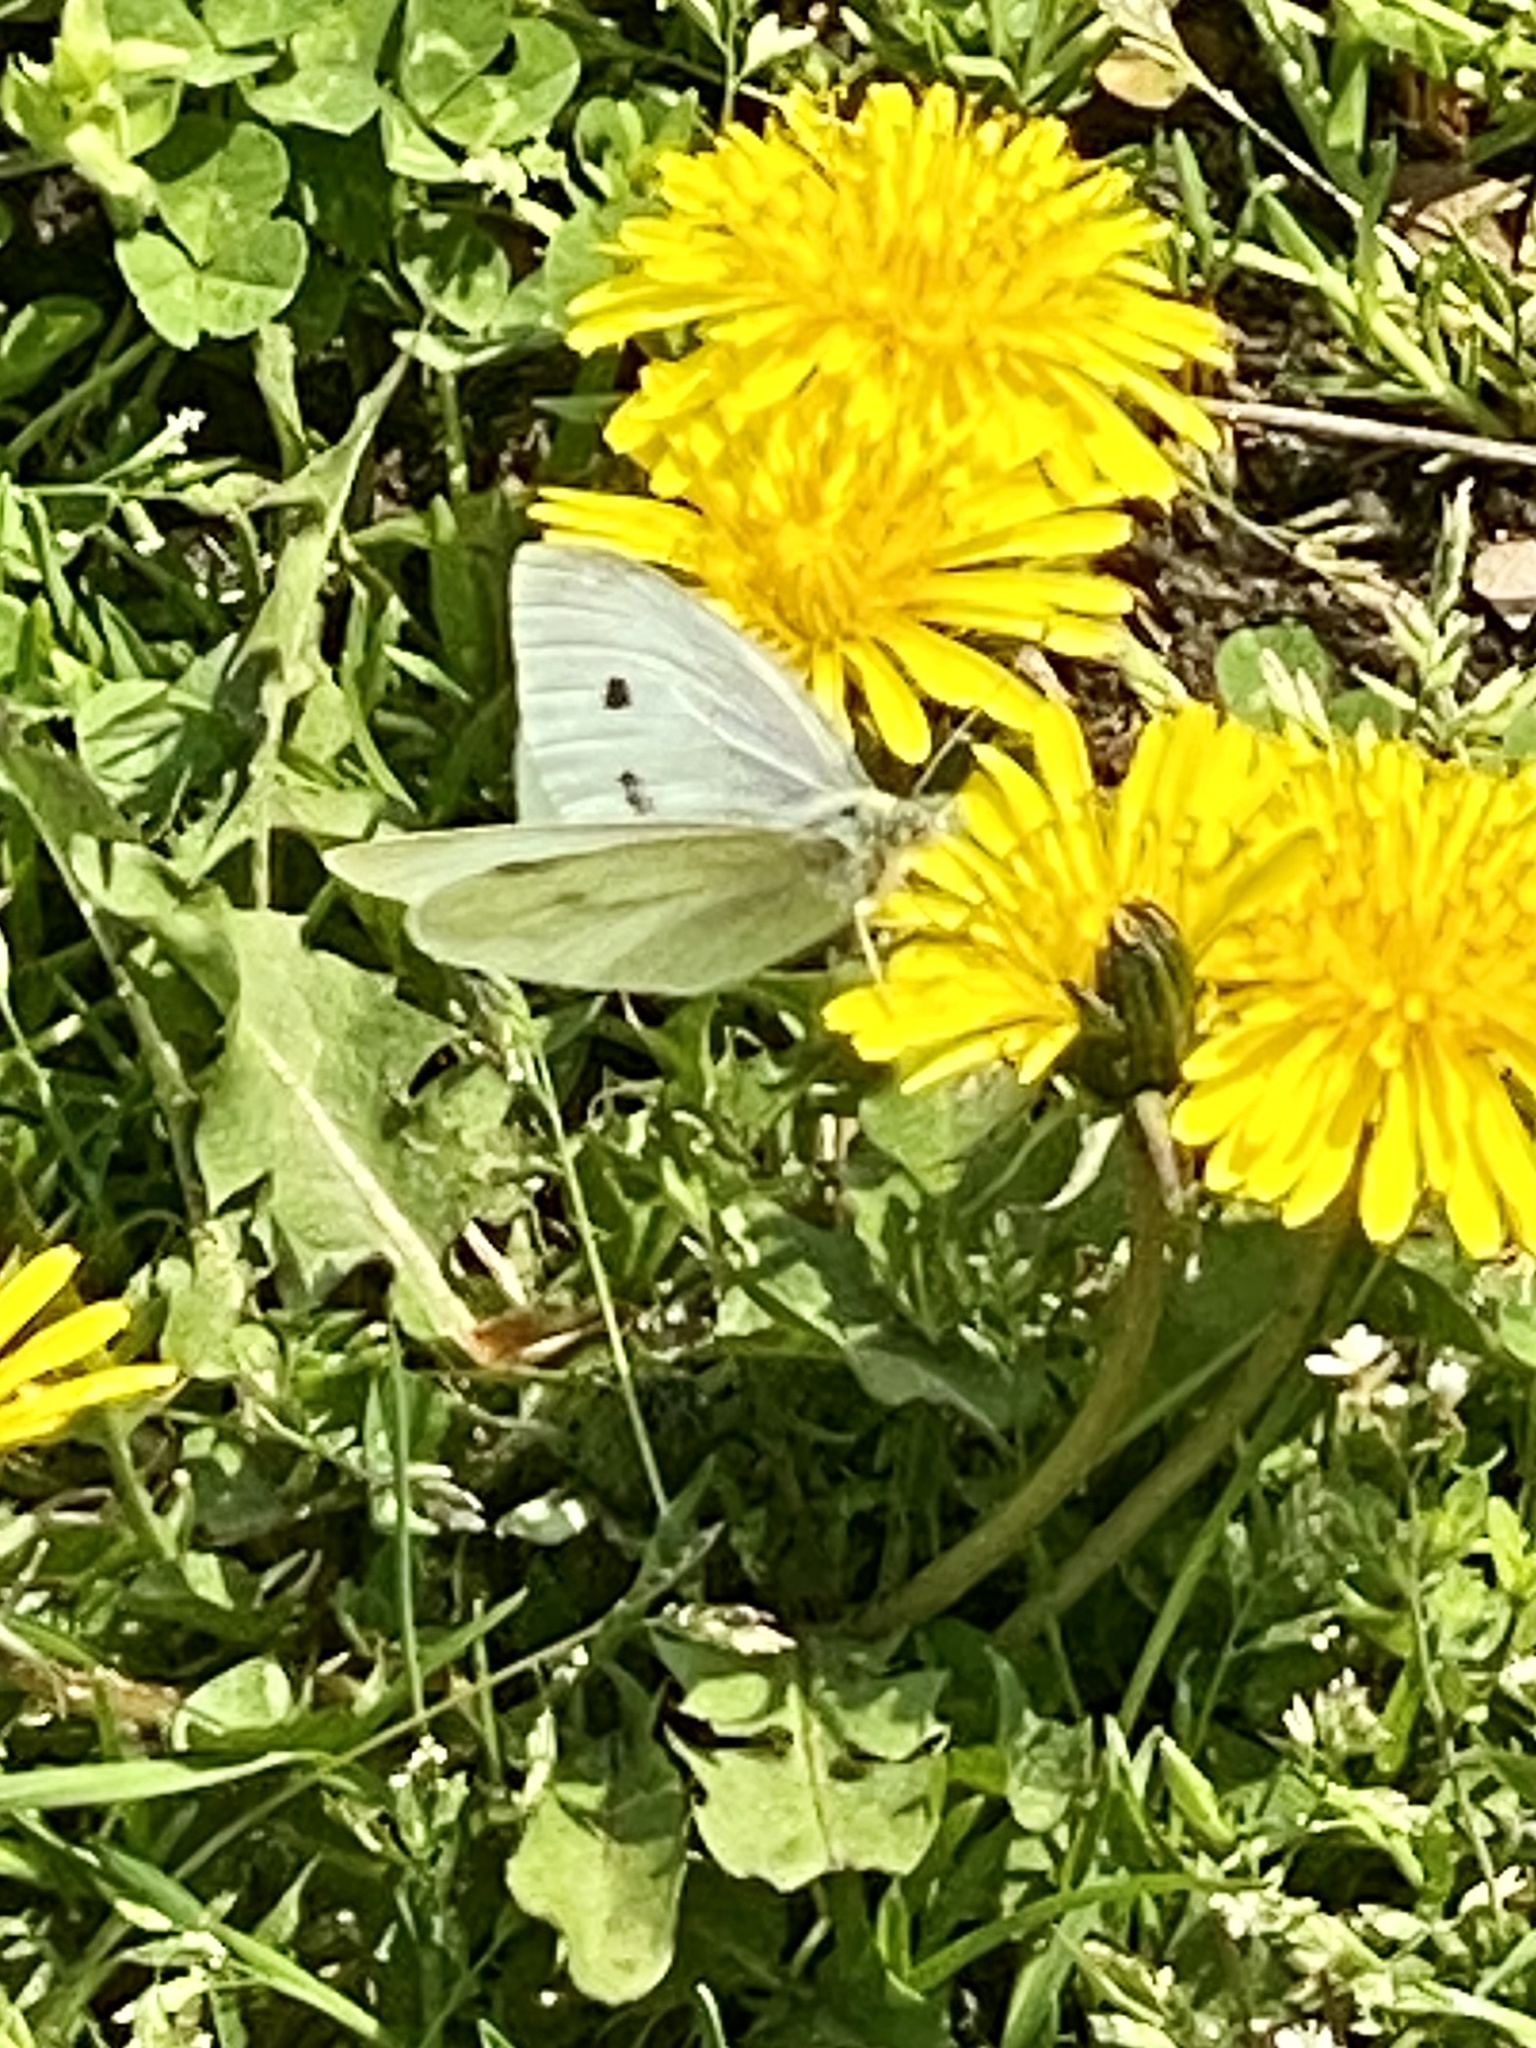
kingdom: Animalia
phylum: Arthropoda
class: Insecta
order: Lepidoptera
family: Pieridae
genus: Pieris
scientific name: Pieris rapae
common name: Small white
